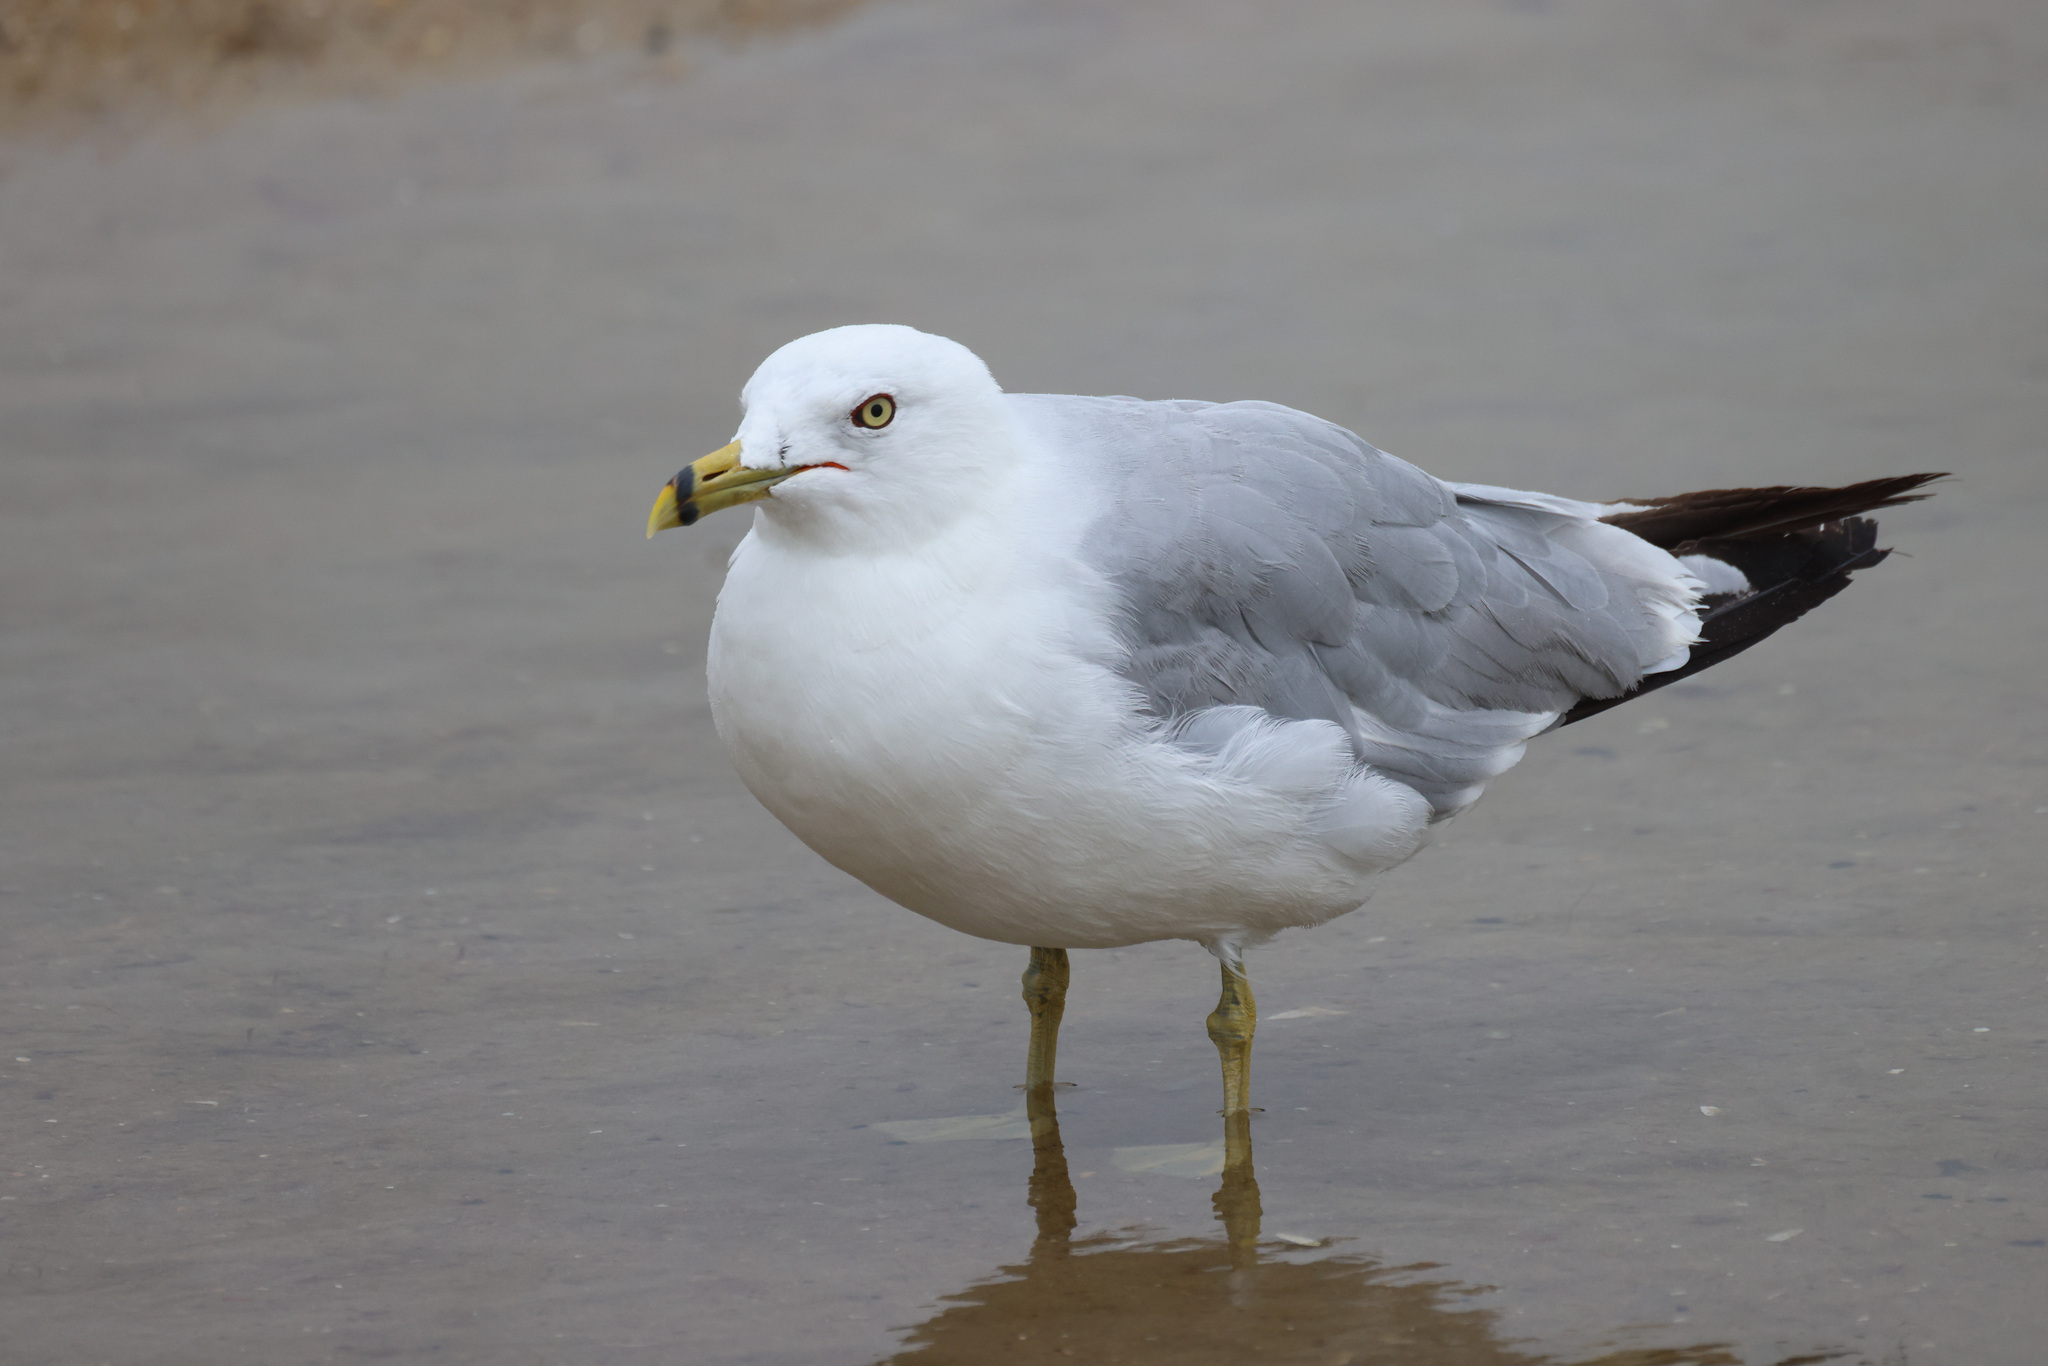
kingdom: Animalia
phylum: Chordata
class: Aves
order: Charadriiformes
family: Laridae
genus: Larus
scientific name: Larus delawarensis
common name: Ring-billed gull
